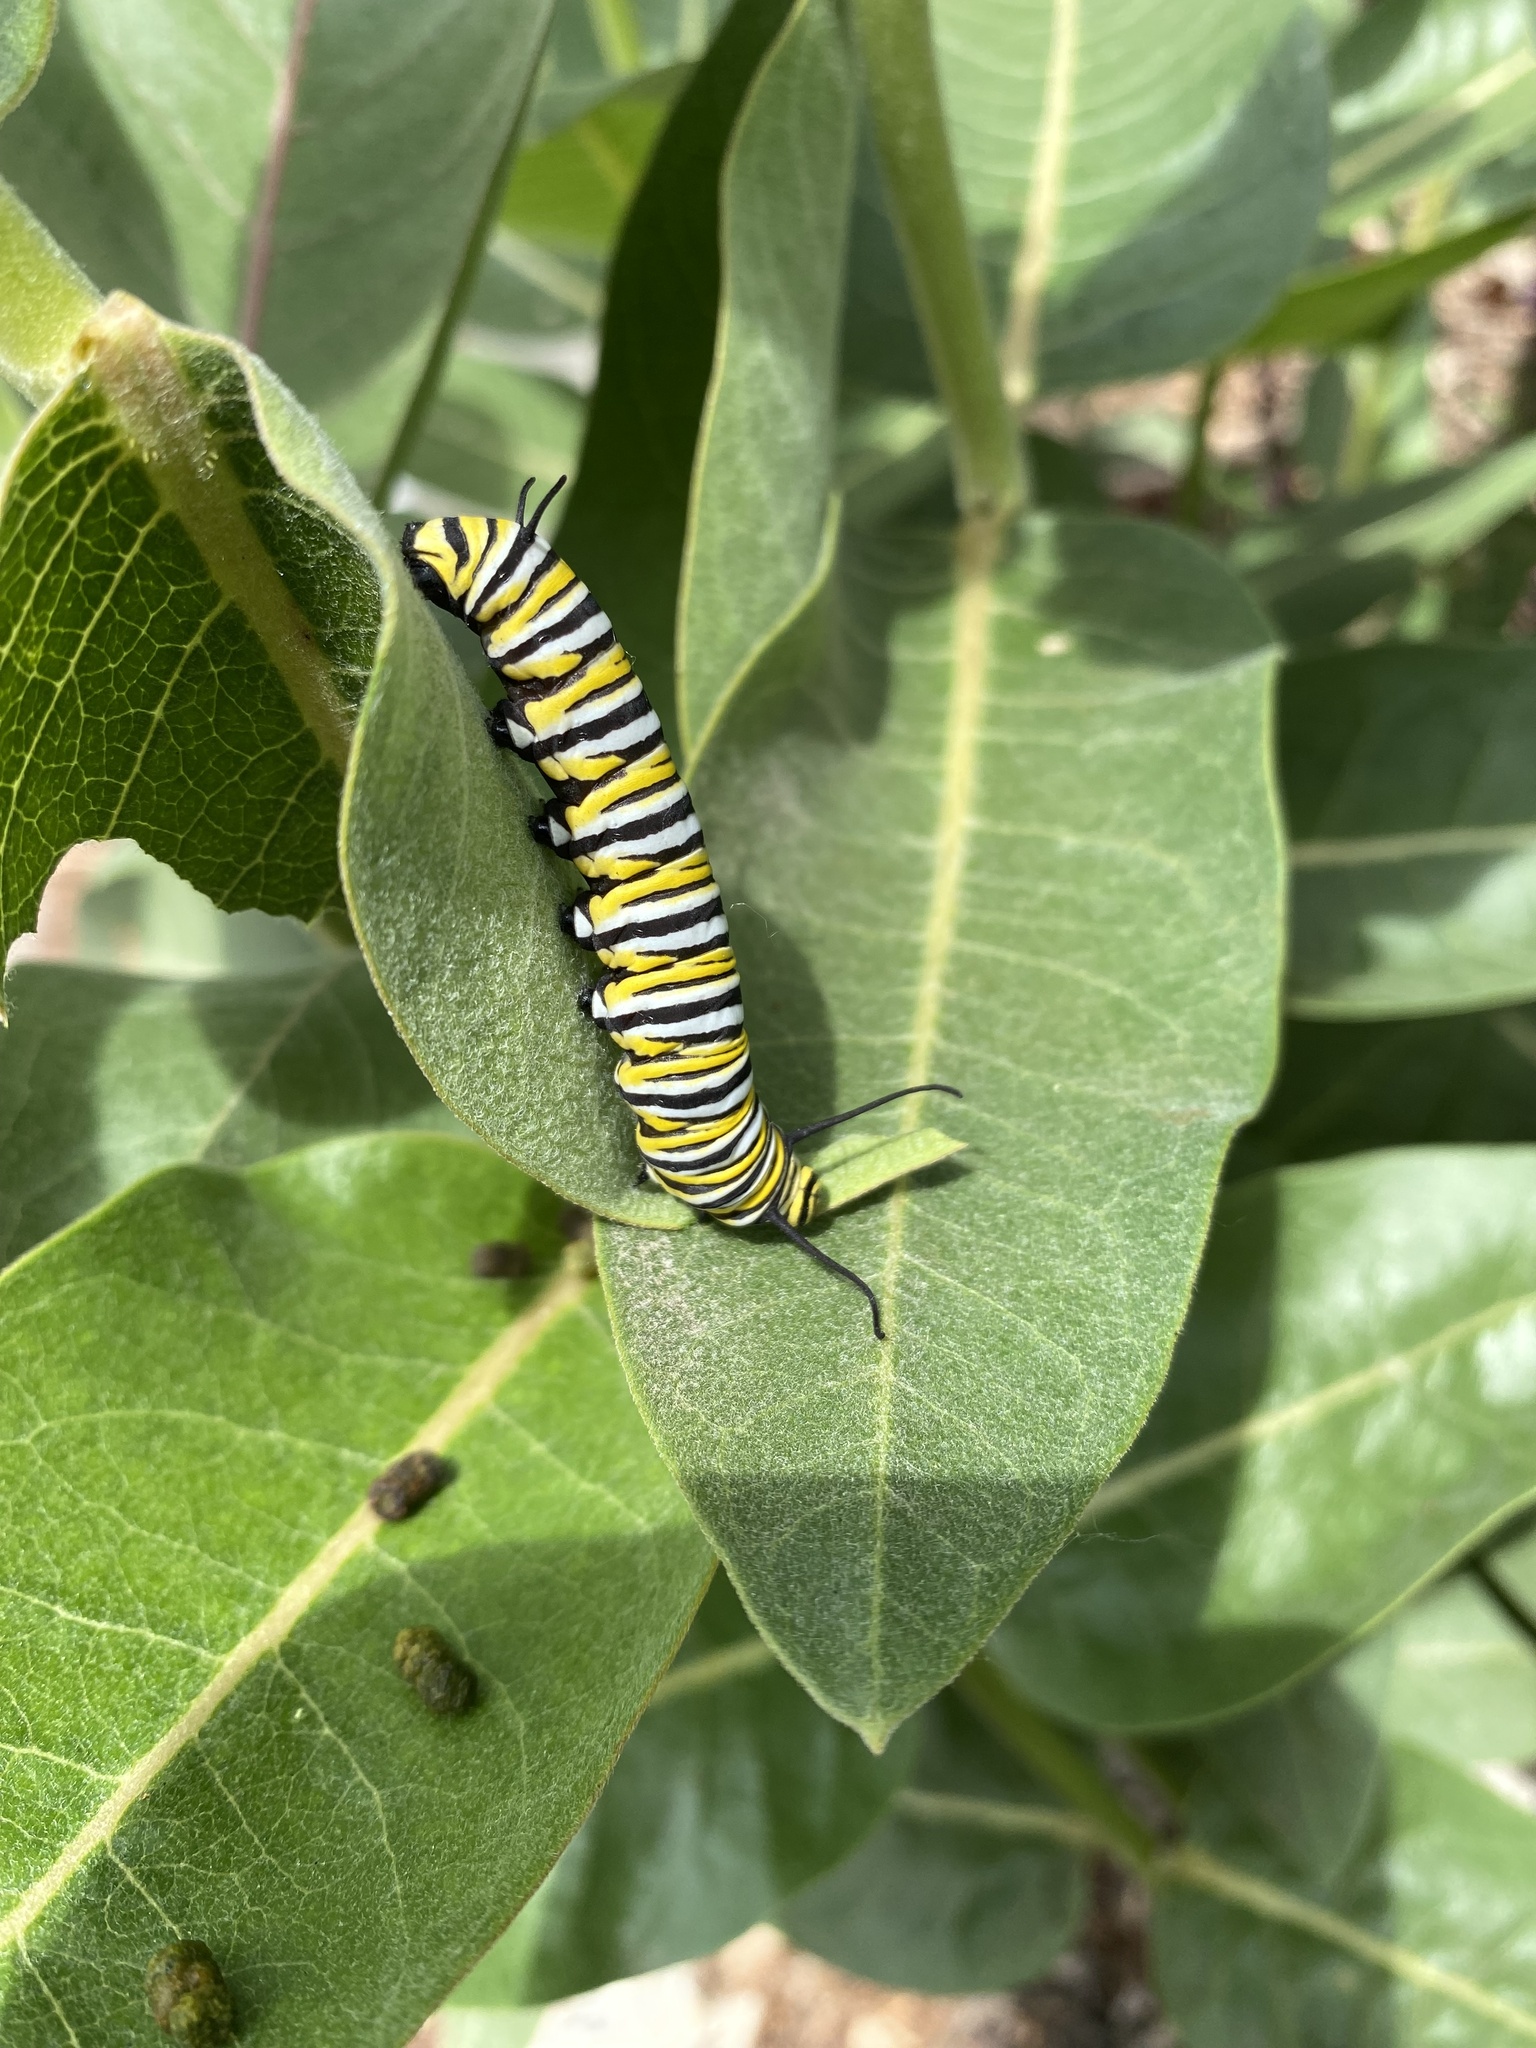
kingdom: Animalia
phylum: Arthropoda
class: Insecta
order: Lepidoptera
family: Nymphalidae
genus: Danaus
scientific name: Danaus plexippus
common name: Monarch
